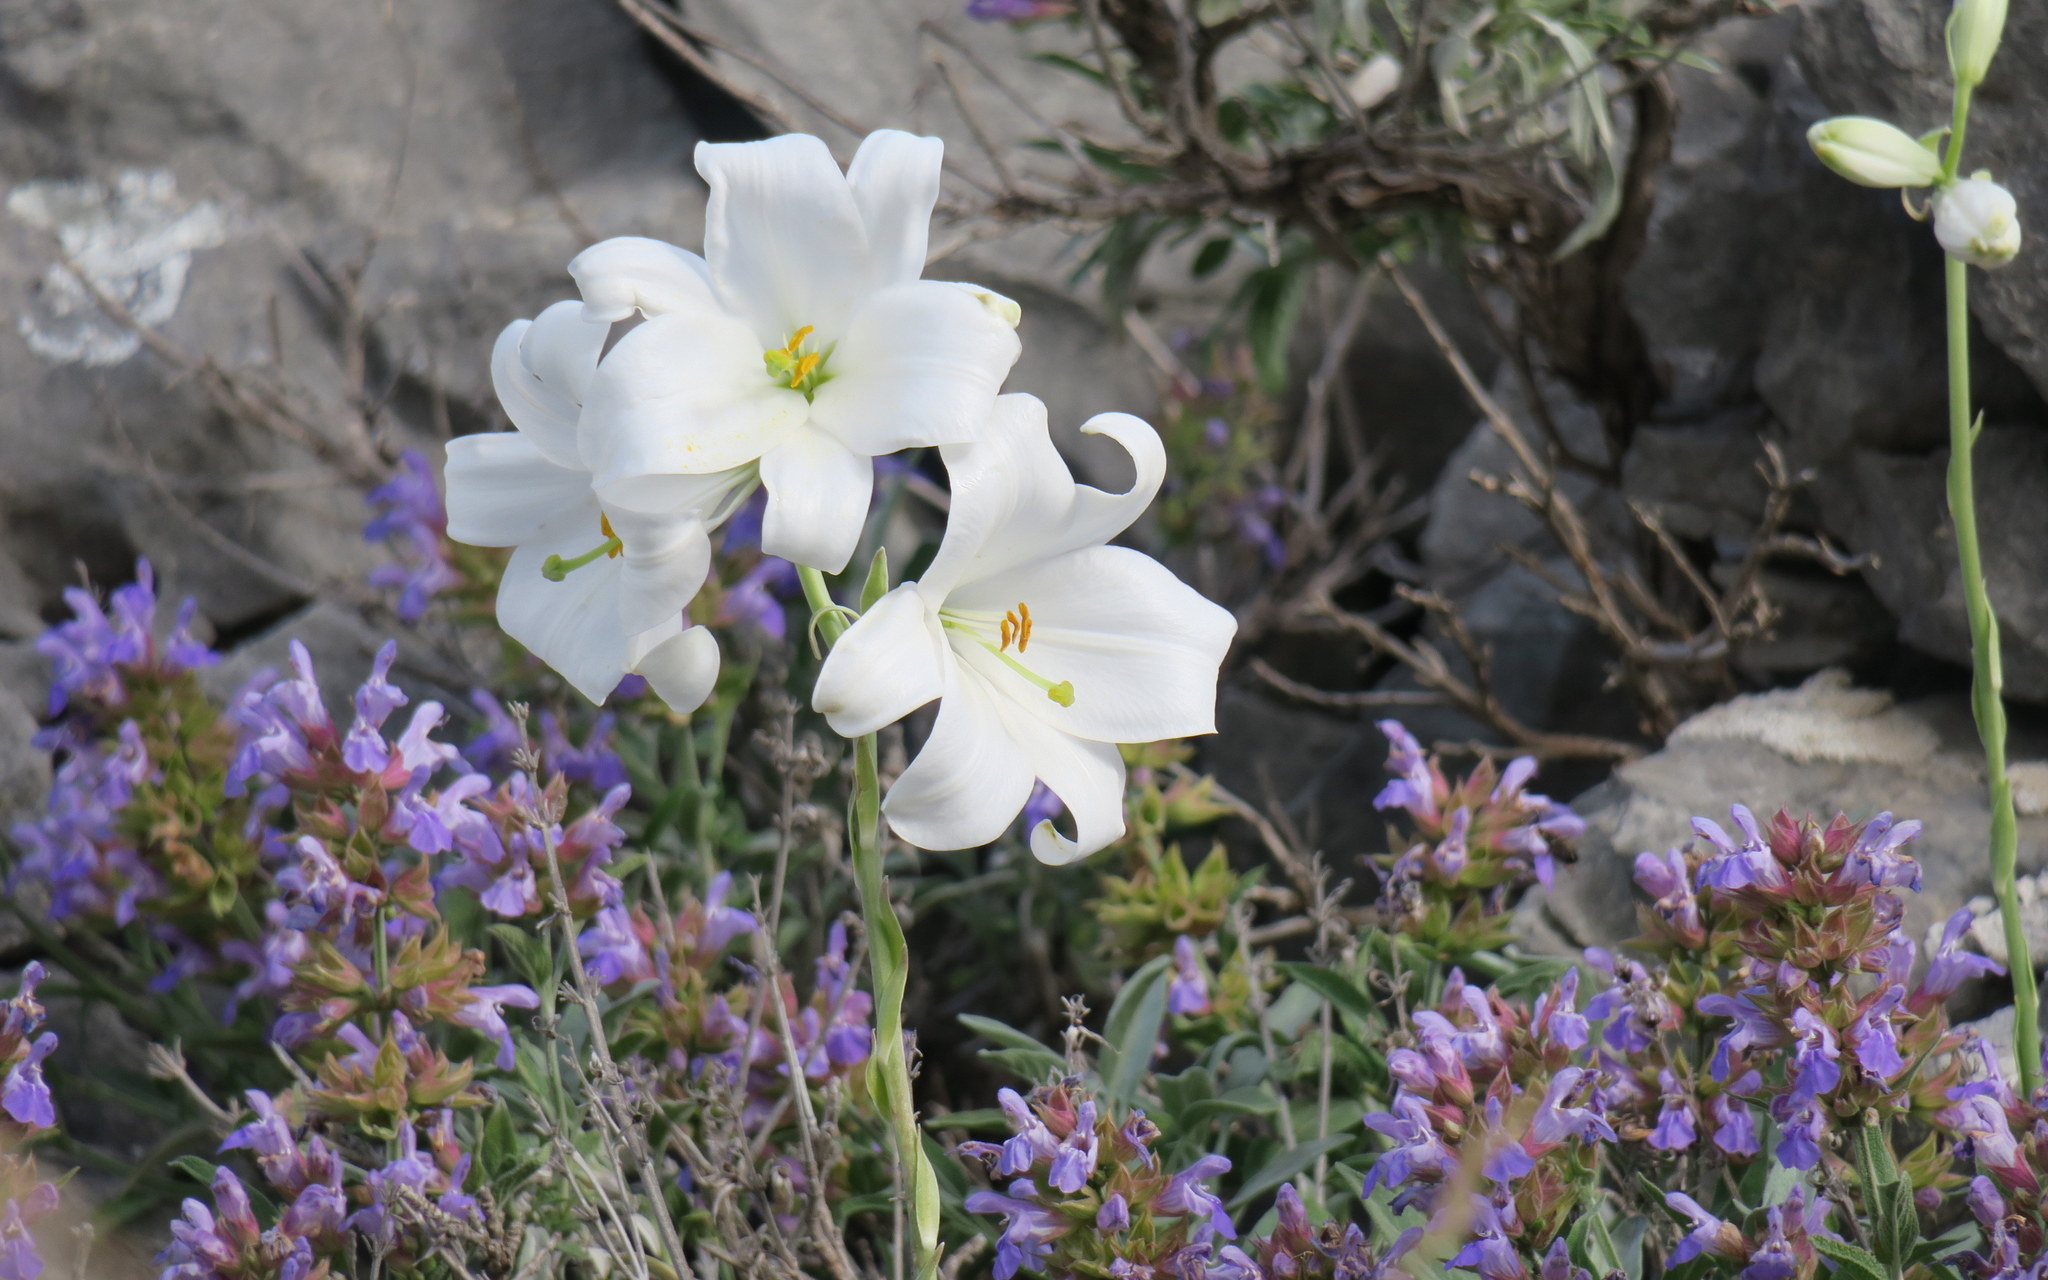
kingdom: Plantae
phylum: Tracheophyta
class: Liliopsida
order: Liliales
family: Liliaceae
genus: Lilium
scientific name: Lilium candidum
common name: Madonna lily
